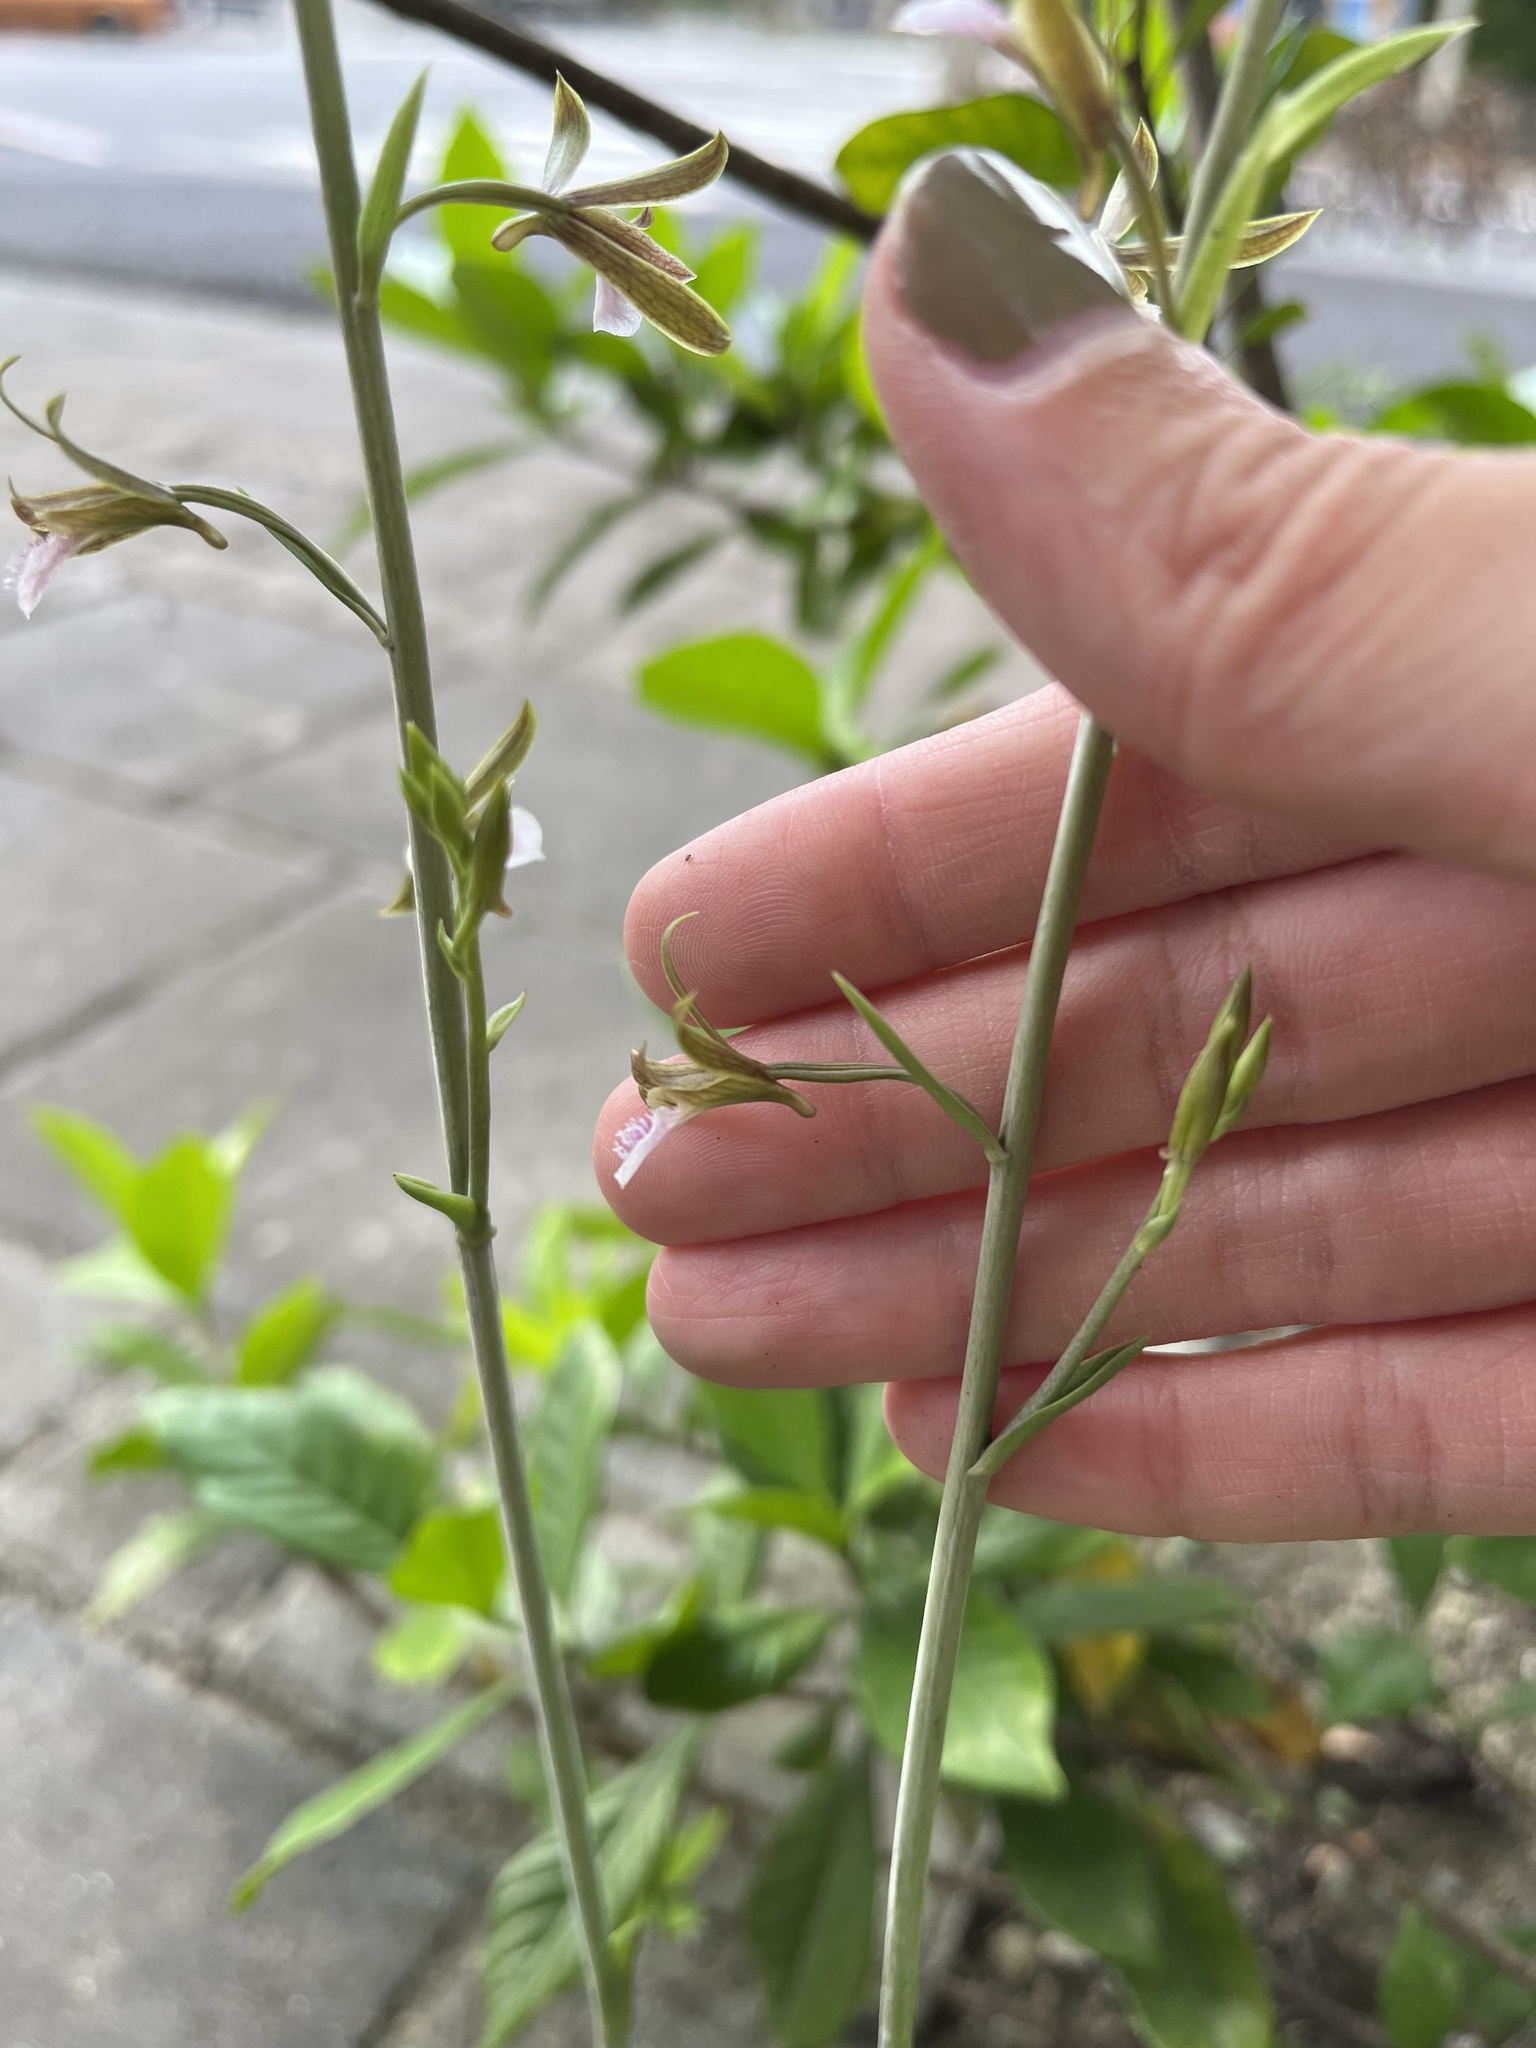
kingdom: Plantae
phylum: Tracheophyta
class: Liliopsida
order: Asparagales
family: Orchidaceae
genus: Eulophia
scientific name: Eulophia graminea
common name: Orchid
